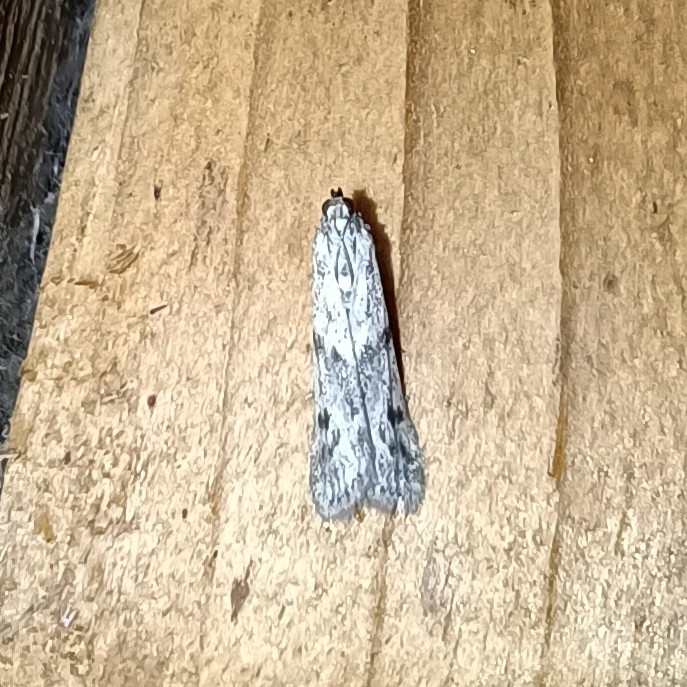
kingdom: Animalia
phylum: Arthropoda
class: Insecta
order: Lepidoptera
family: Pyralidae
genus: Phycitodes
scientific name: Phycitodes binaevella
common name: Ermine knot-horn
